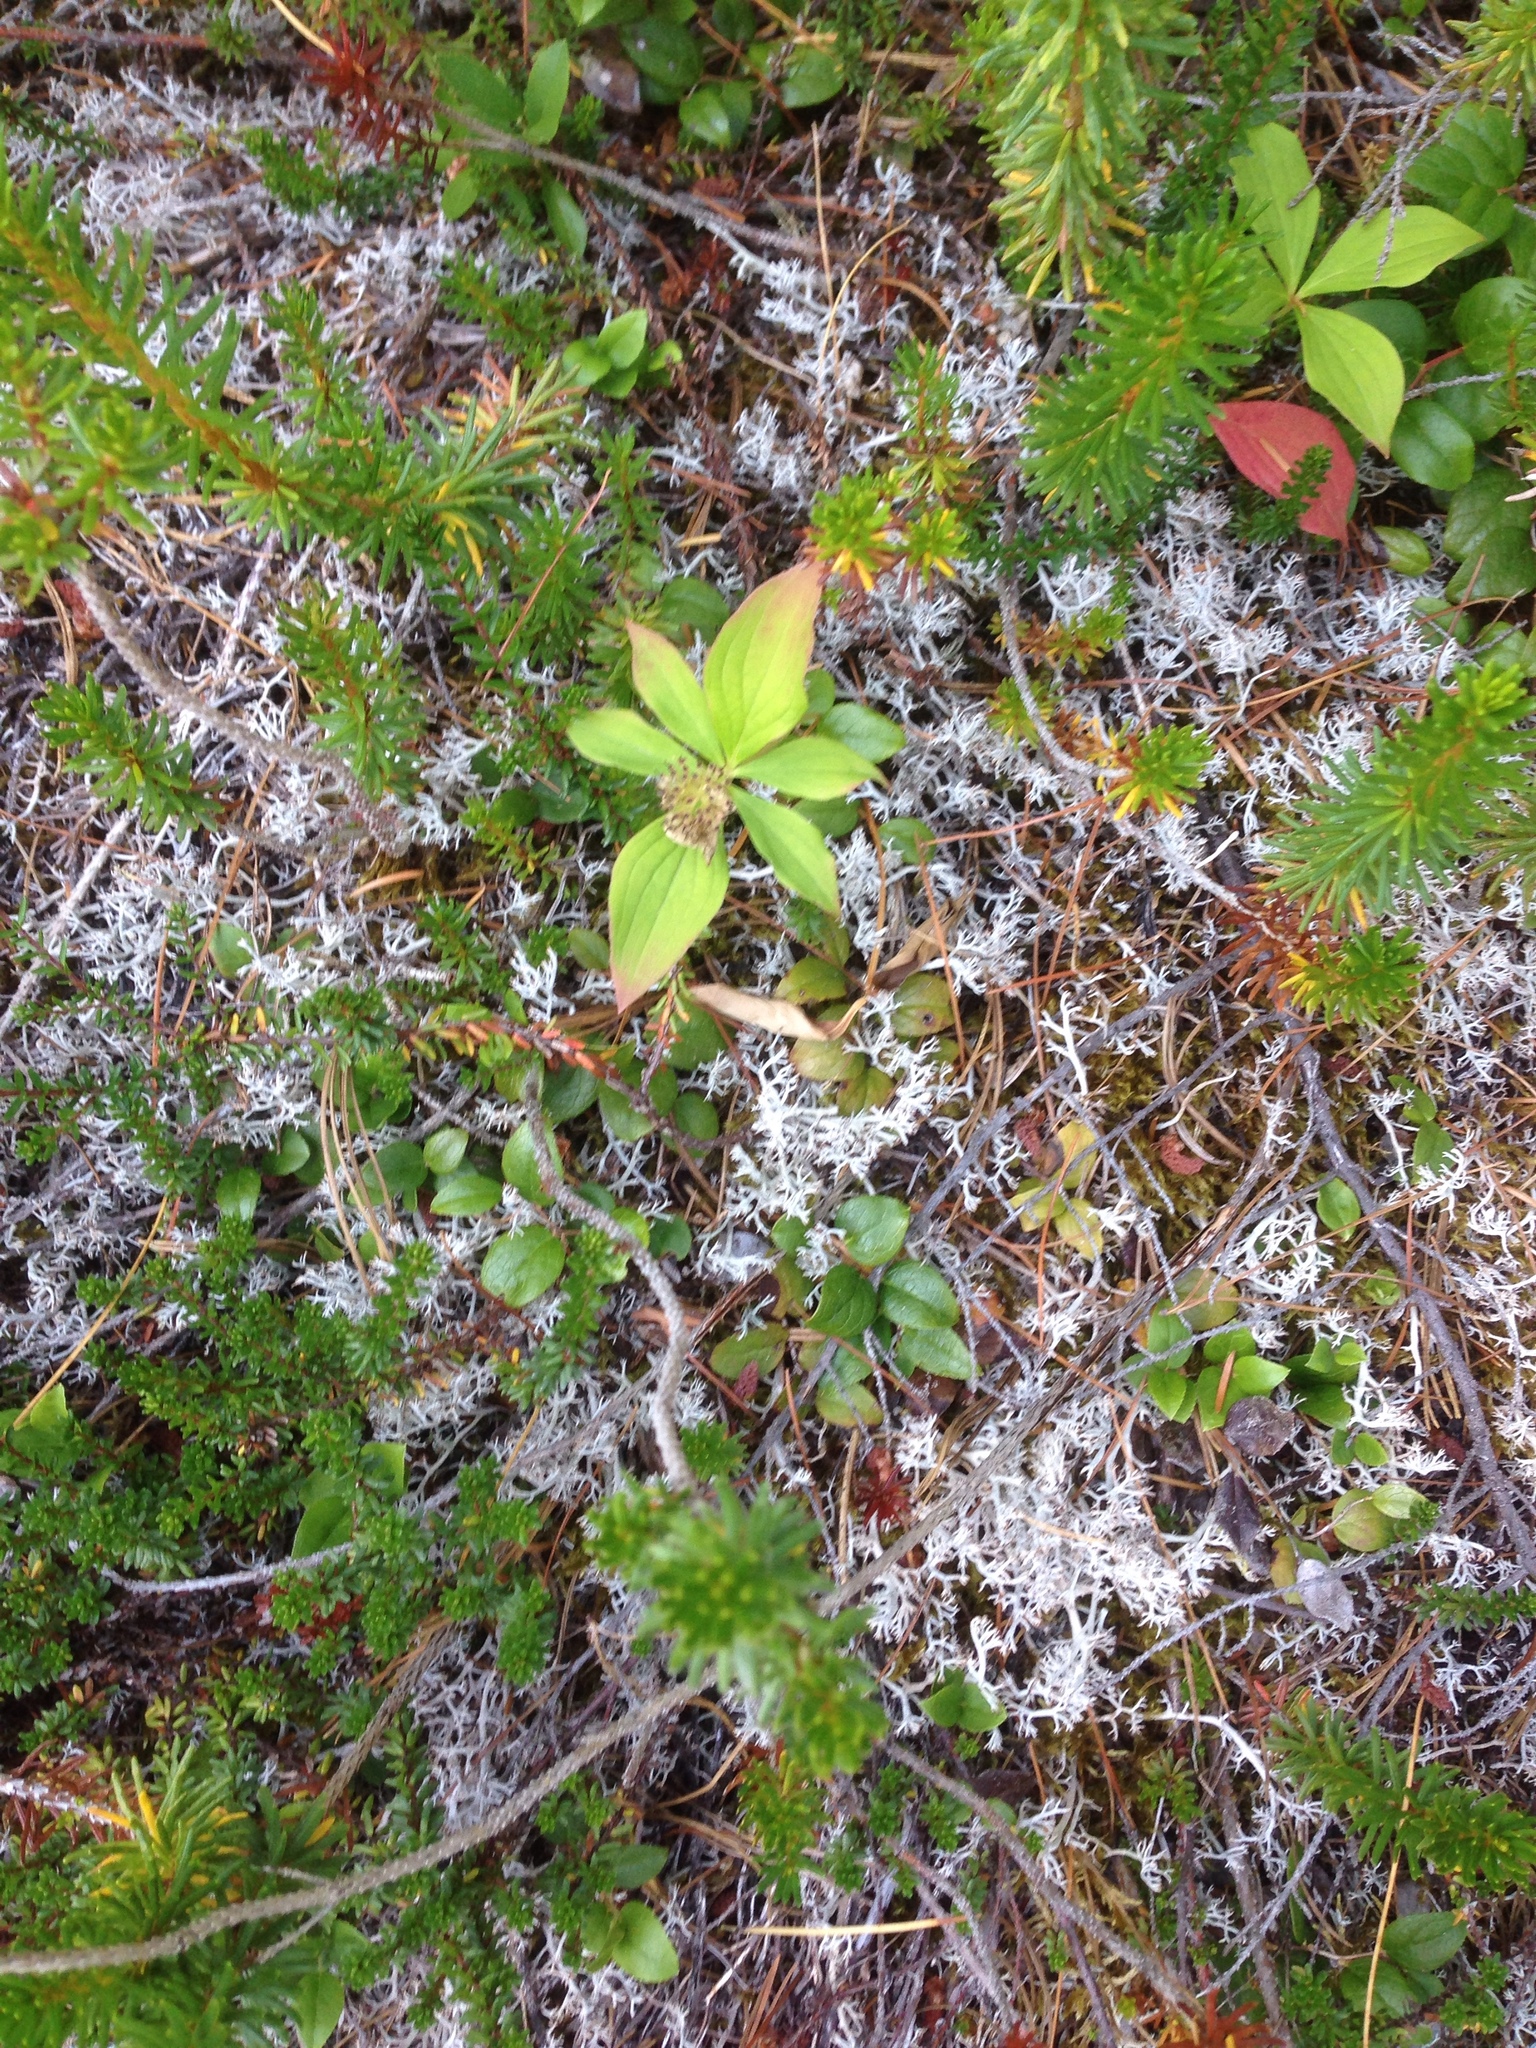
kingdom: Plantae
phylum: Tracheophyta
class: Magnoliopsida
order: Cornales
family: Cornaceae
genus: Cornus
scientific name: Cornus unalaschkensis
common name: Alaska bunchberry
